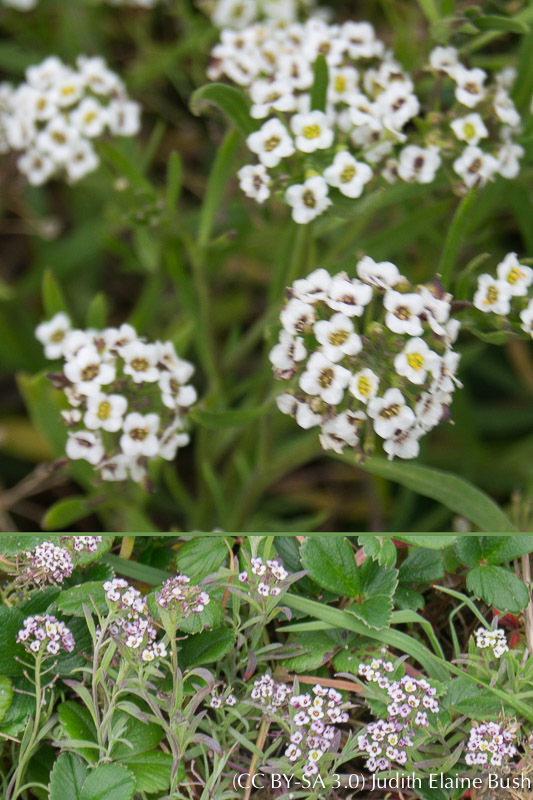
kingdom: Plantae
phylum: Tracheophyta
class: Magnoliopsida
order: Brassicales
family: Brassicaceae
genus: Lobularia
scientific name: Lobularia maritima
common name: Sweet alison
